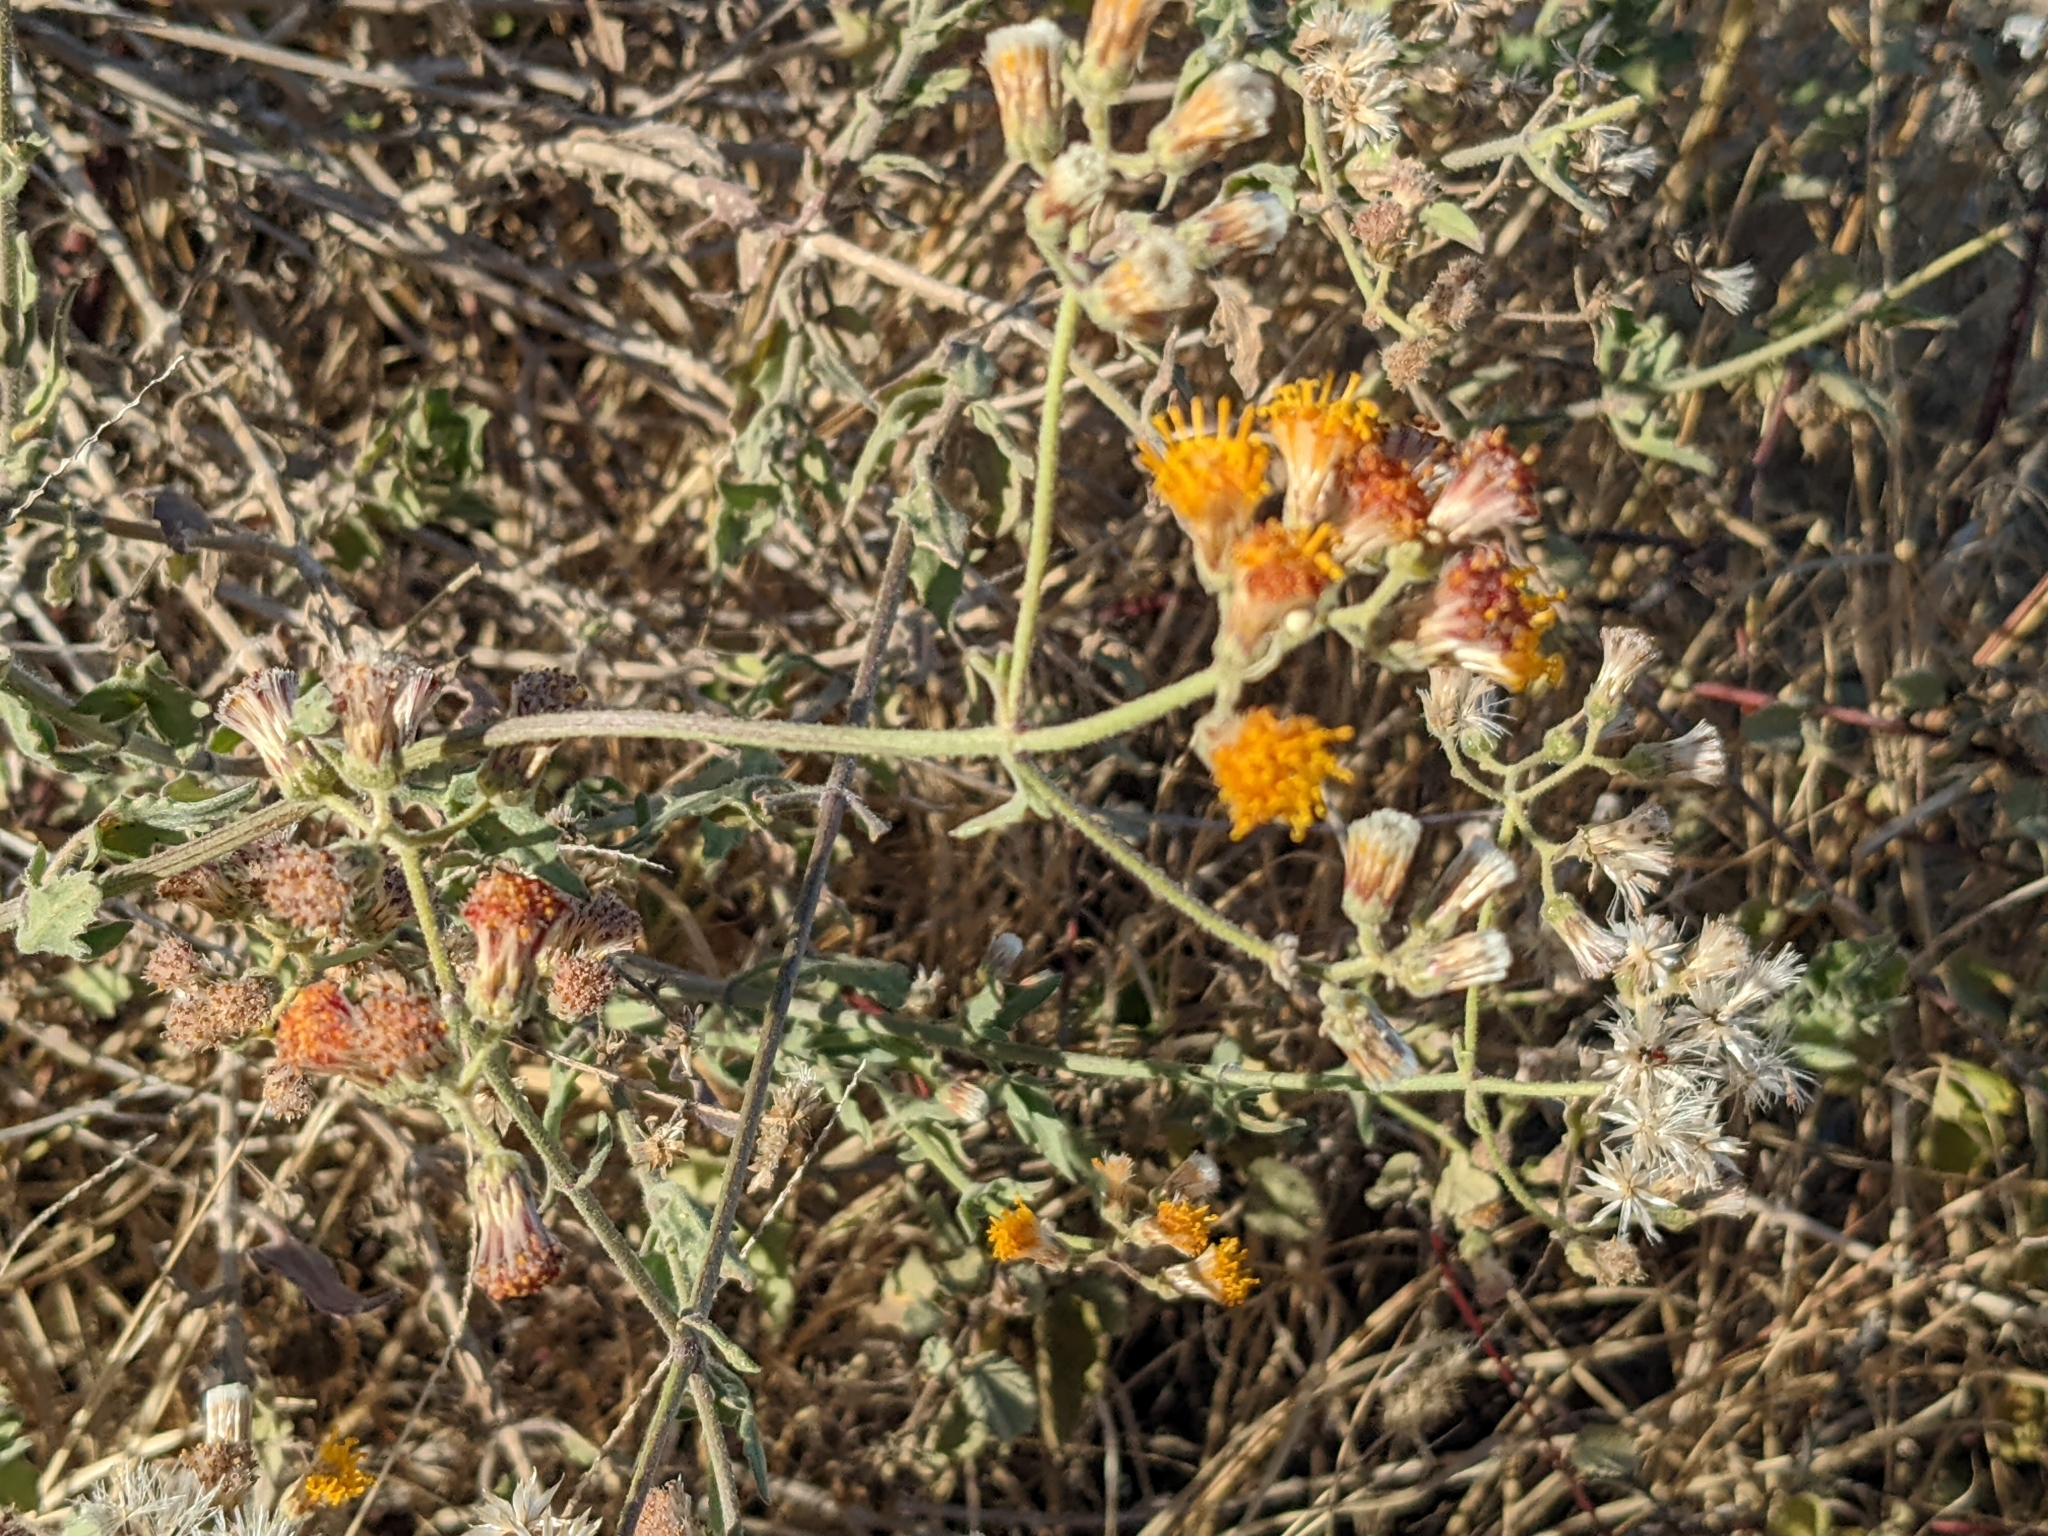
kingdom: Plantae
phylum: Tracheophyta
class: Magnoliopsida
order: Asterales
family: Asteraceae
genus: Bebbia
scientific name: Bebbia atriplicifolia
